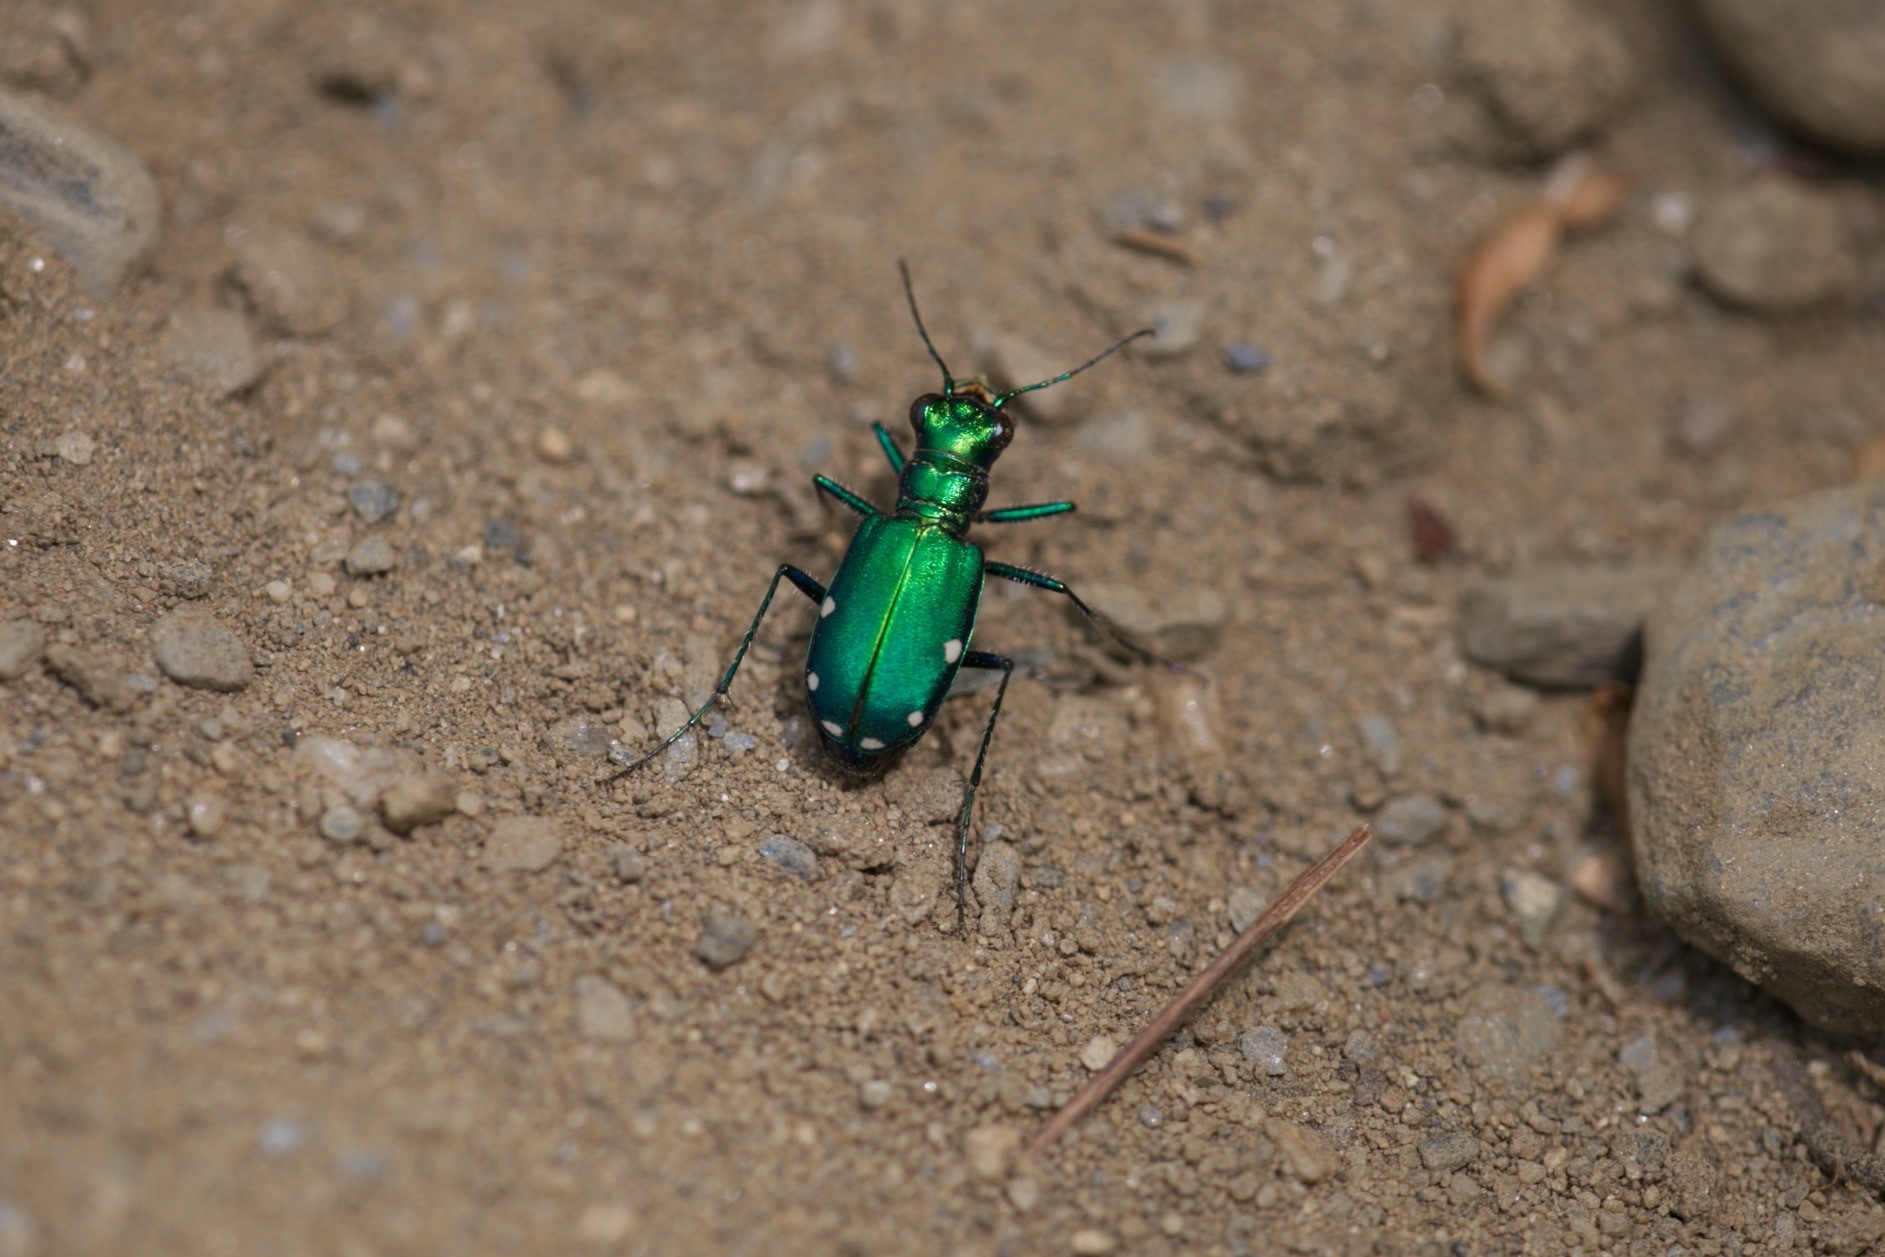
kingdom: Animalia
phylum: Arthropoda
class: Insecta
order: Coleoptera
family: Carabidae
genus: Cicindela
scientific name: Cicindela sexguttata
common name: Six-spotted tiger beetle
